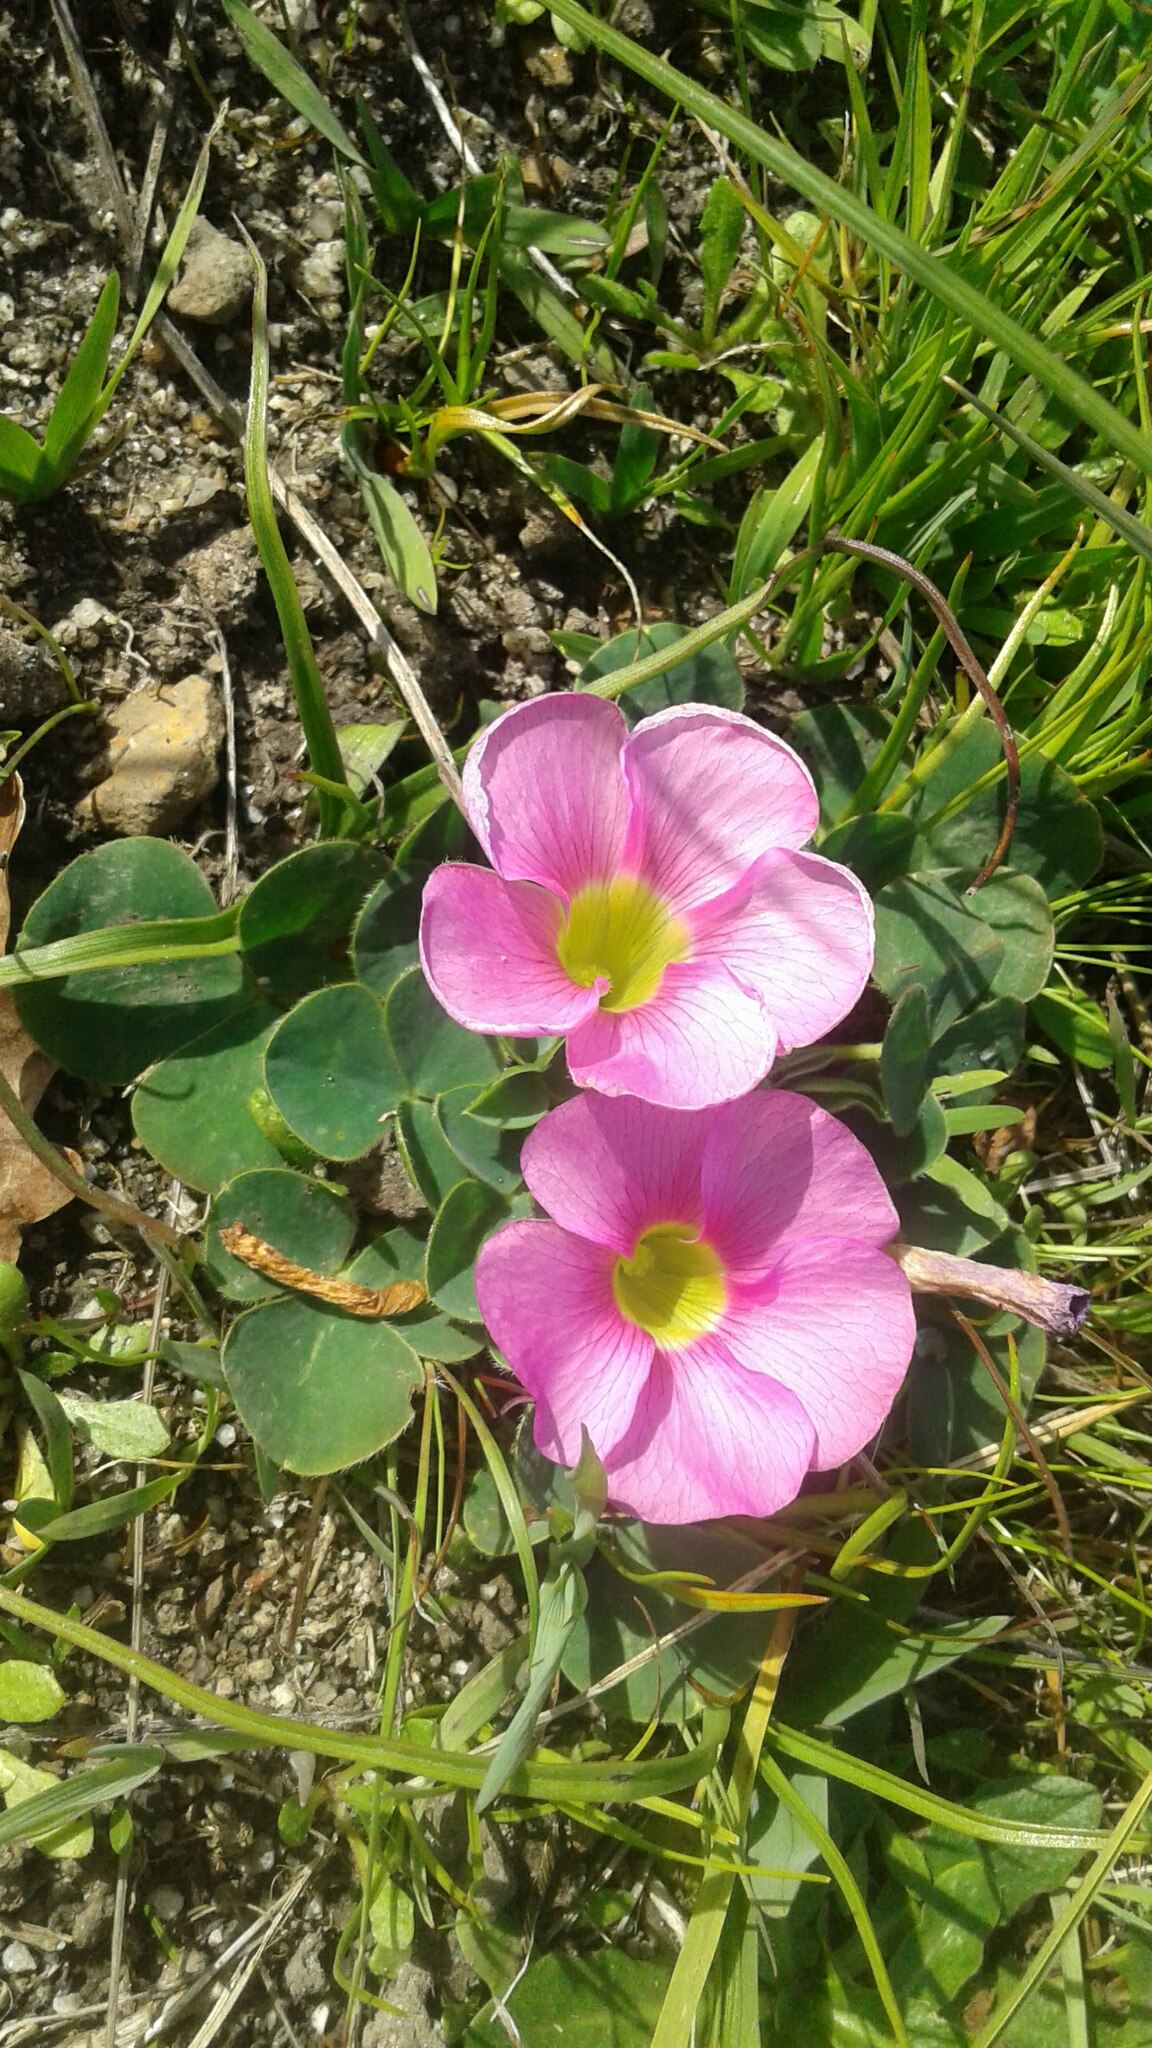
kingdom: Plantae
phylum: Tracheophyta
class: Magnoliopsida
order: Oxalidales
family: Oxalidaceae
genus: Oxalis
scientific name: Oxalis purpurea
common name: Purple woodsorrel
